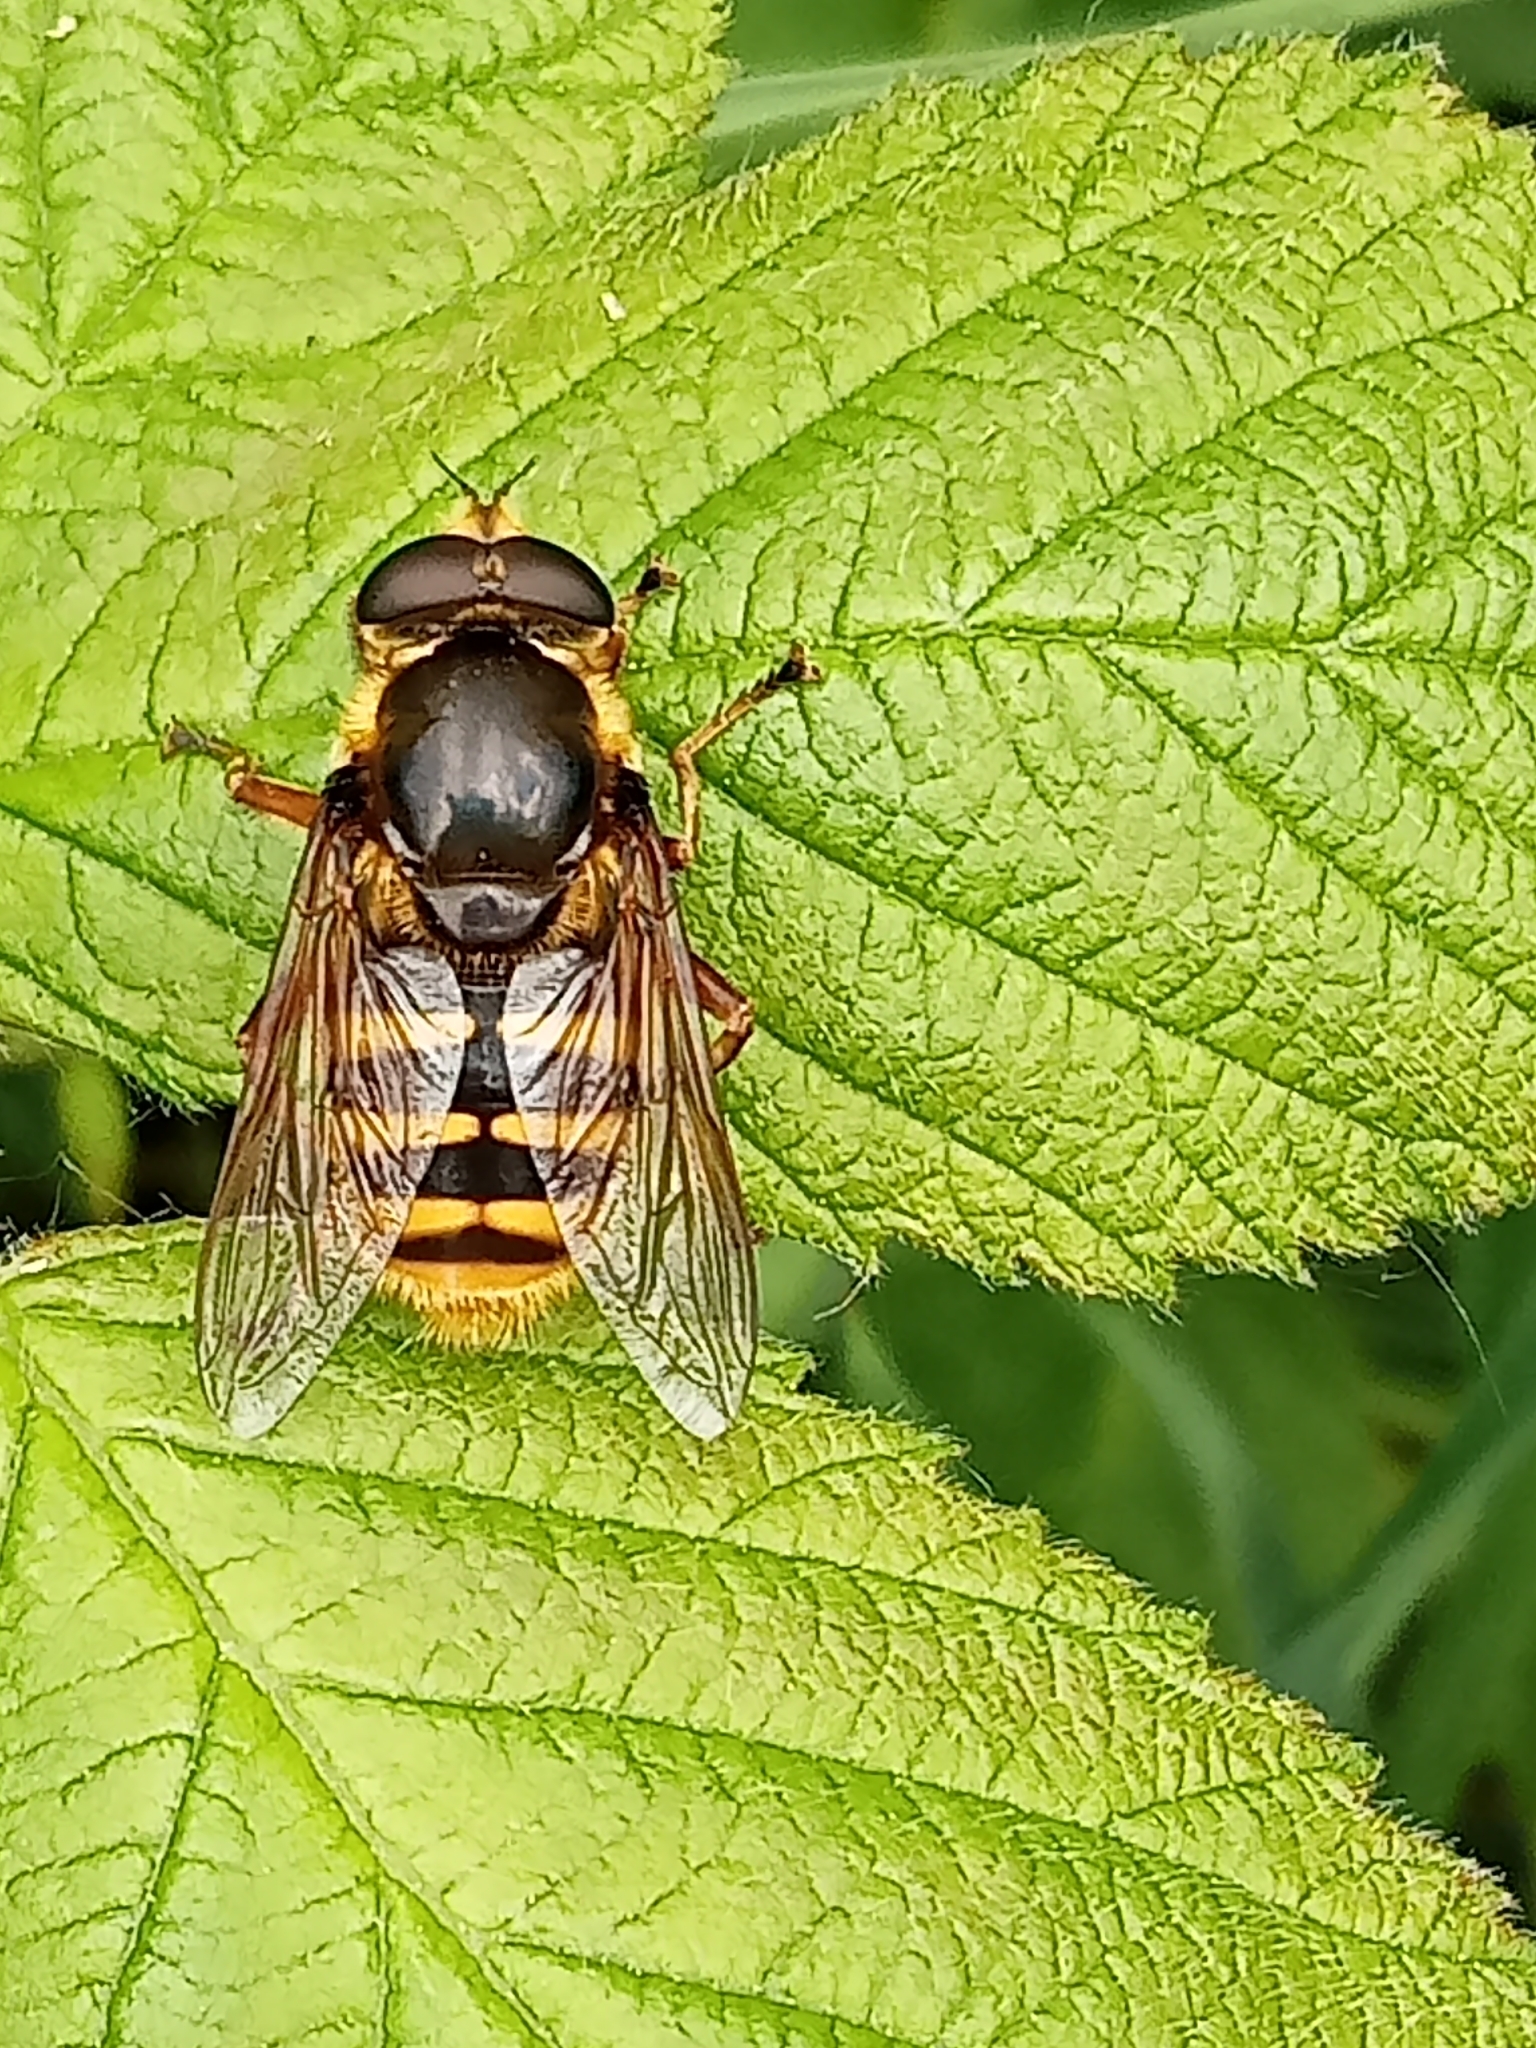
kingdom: Animalia
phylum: Arthropoda
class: Insecta
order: Diptera
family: Syrphidae
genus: Sericomyia
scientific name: Sericomyia silentis
